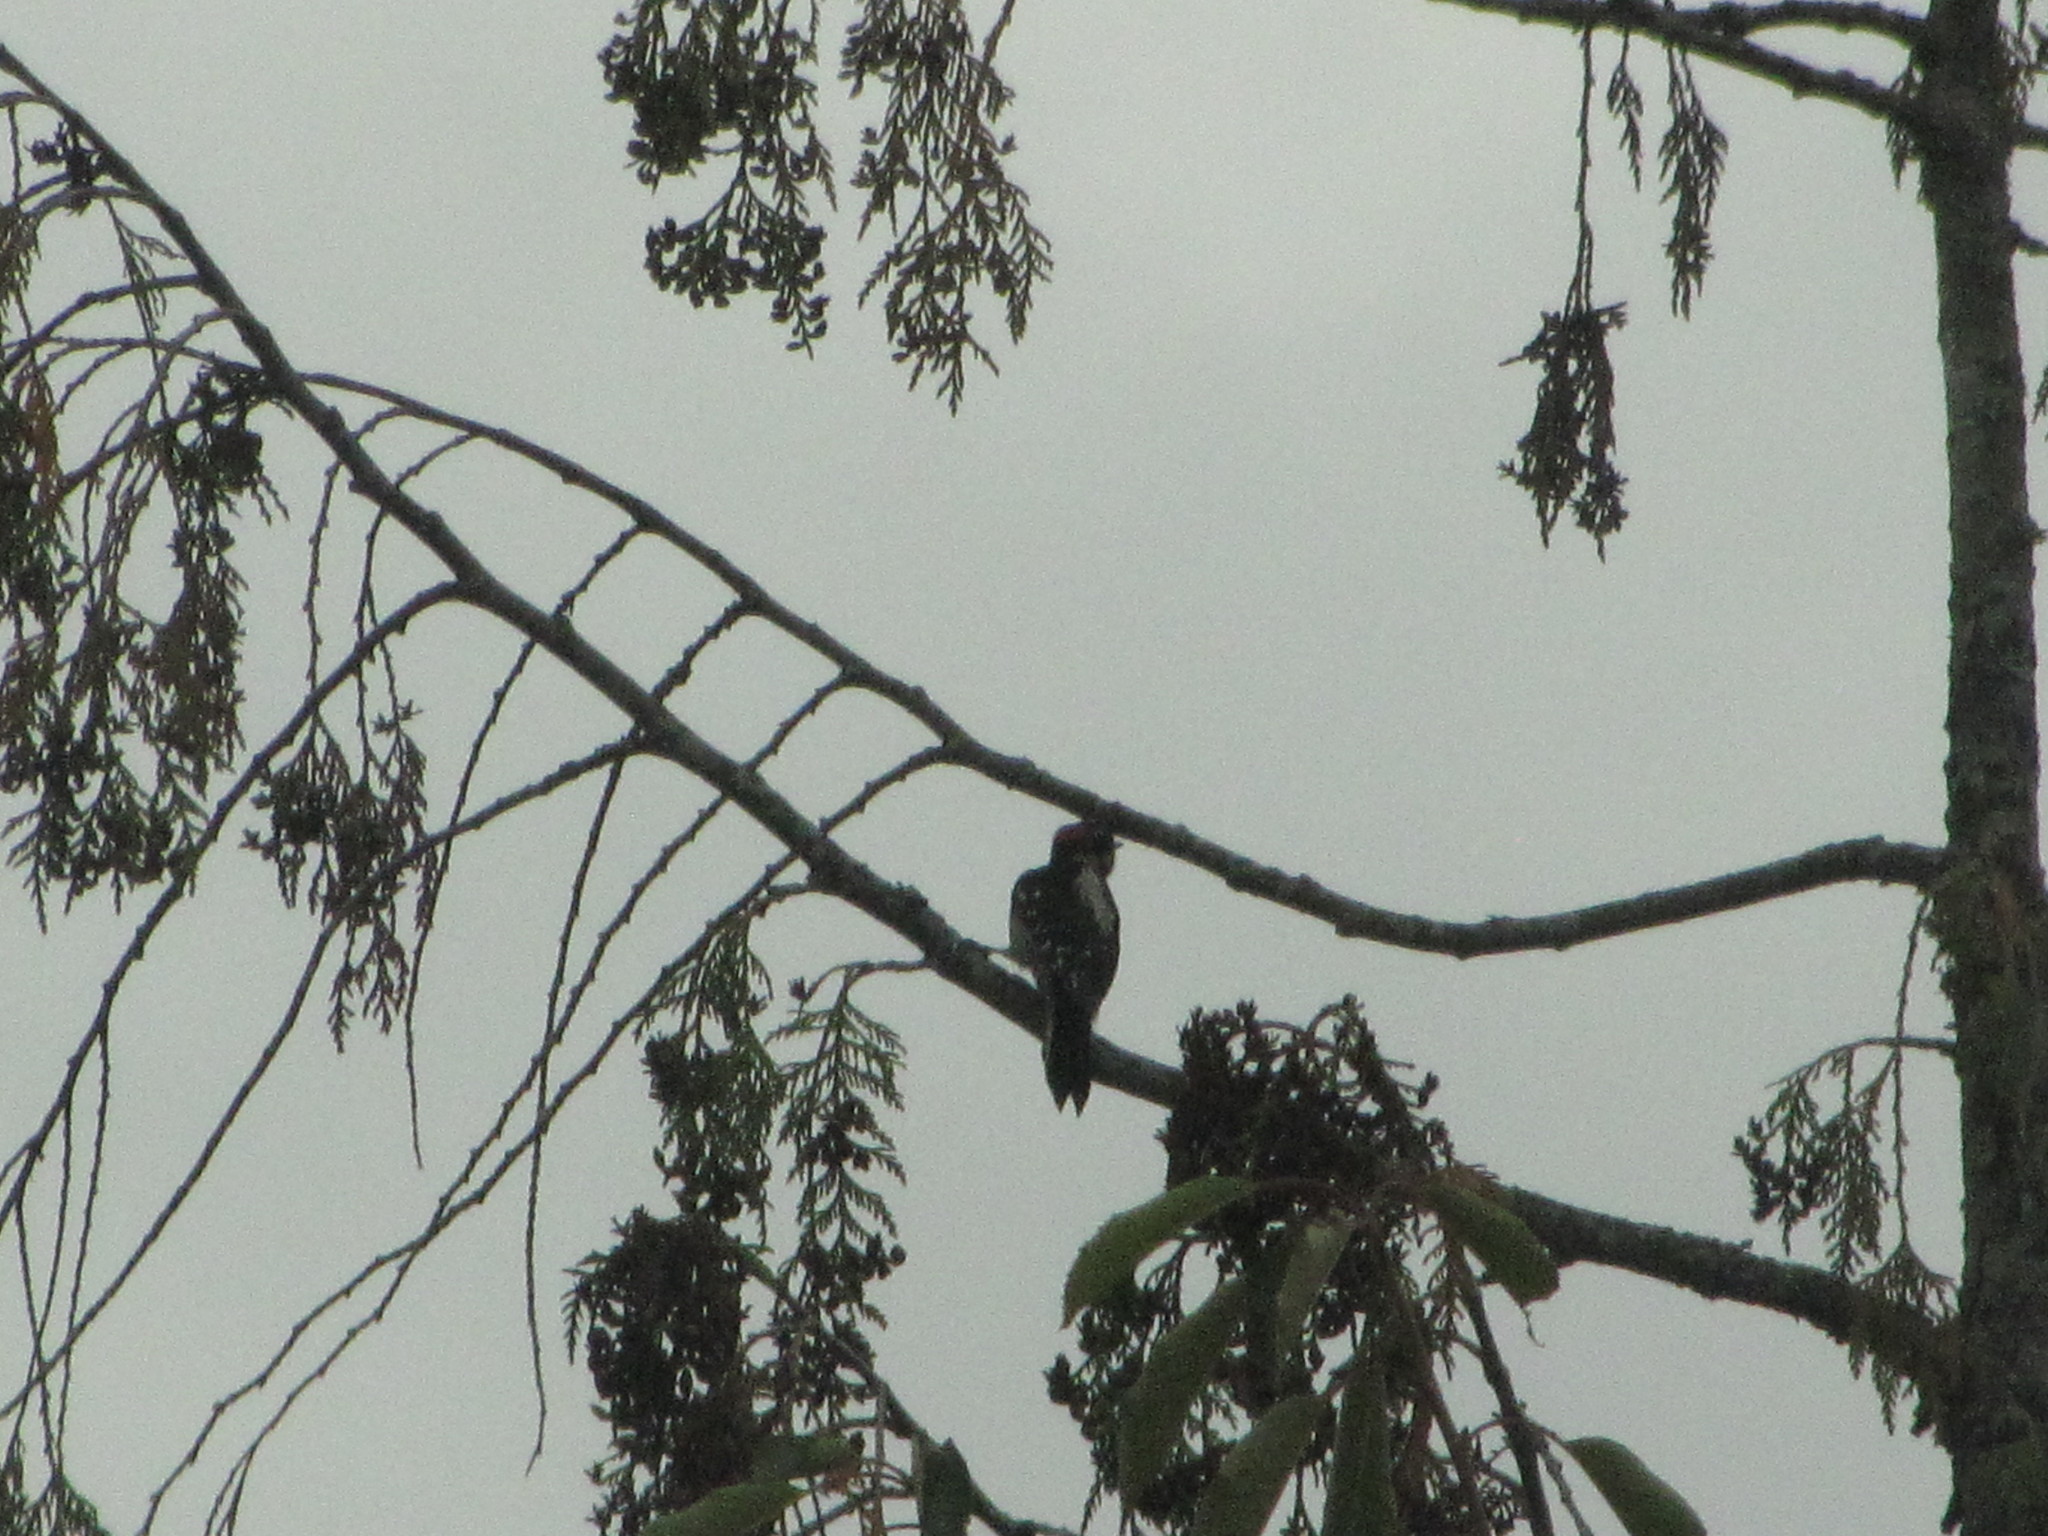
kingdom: Animalia
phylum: Chordata
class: Aves
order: Piciformes
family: Picidae
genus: Dryobates
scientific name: Dryobates pubescens
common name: Downy woodpecker
